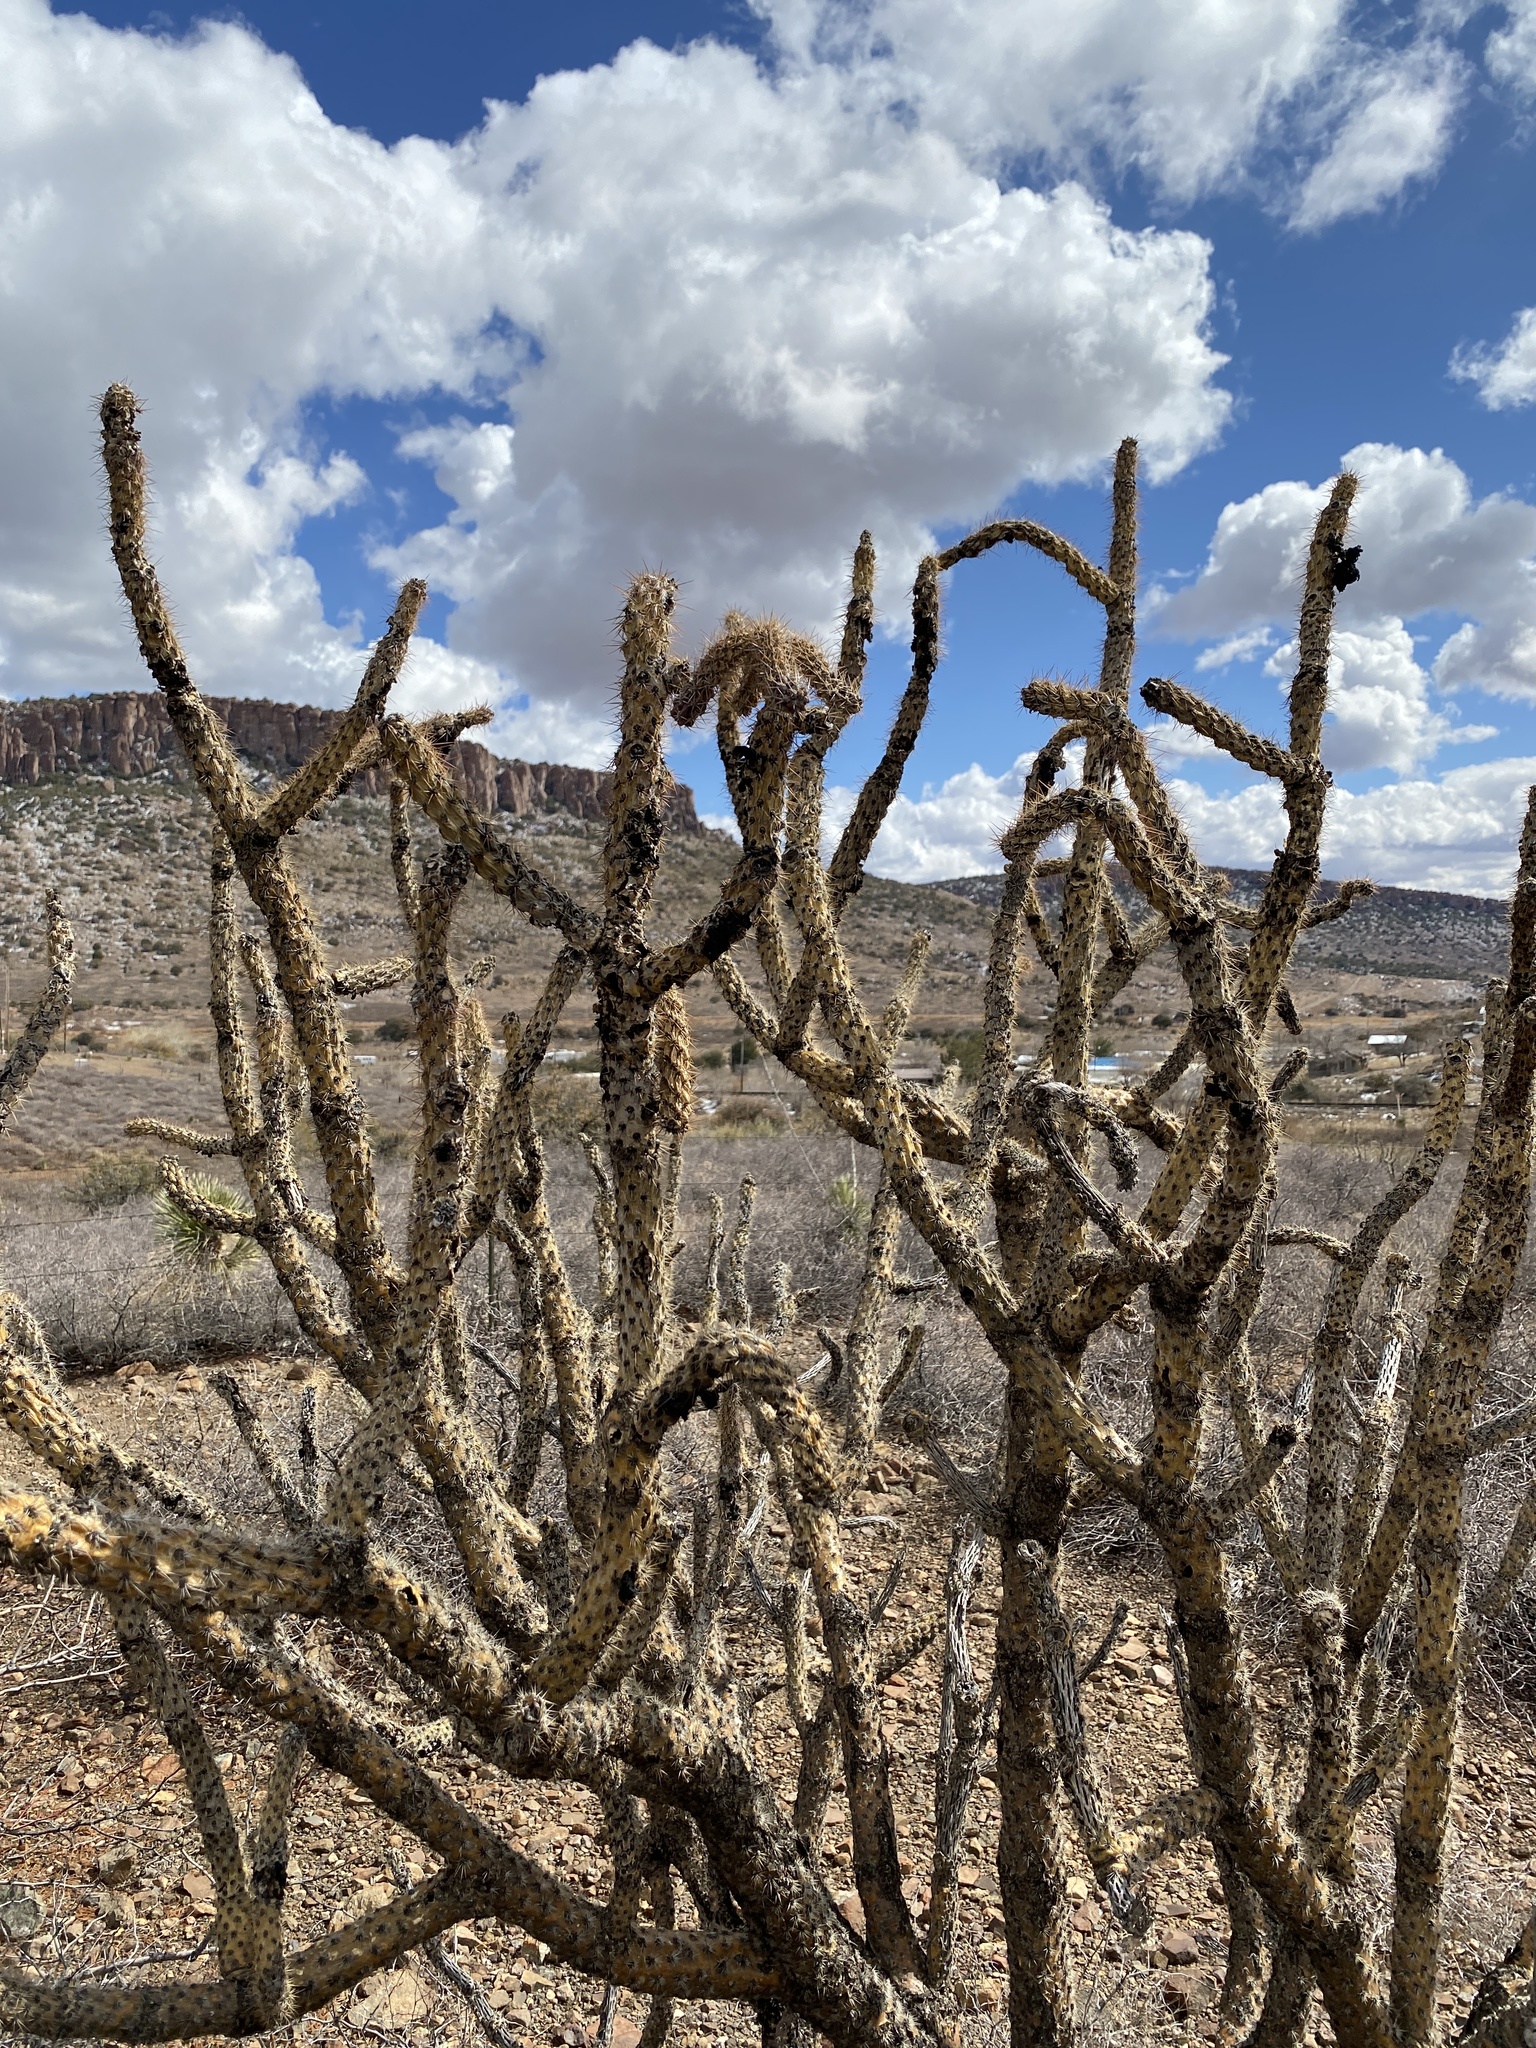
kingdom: Plantae
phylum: Tracheophyta
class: Magnoliopsida
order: Caryophyllales
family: Cactaceae
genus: Cylindropuntia
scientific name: Cylindropuntia imbricata
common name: Candelabrum cactus
